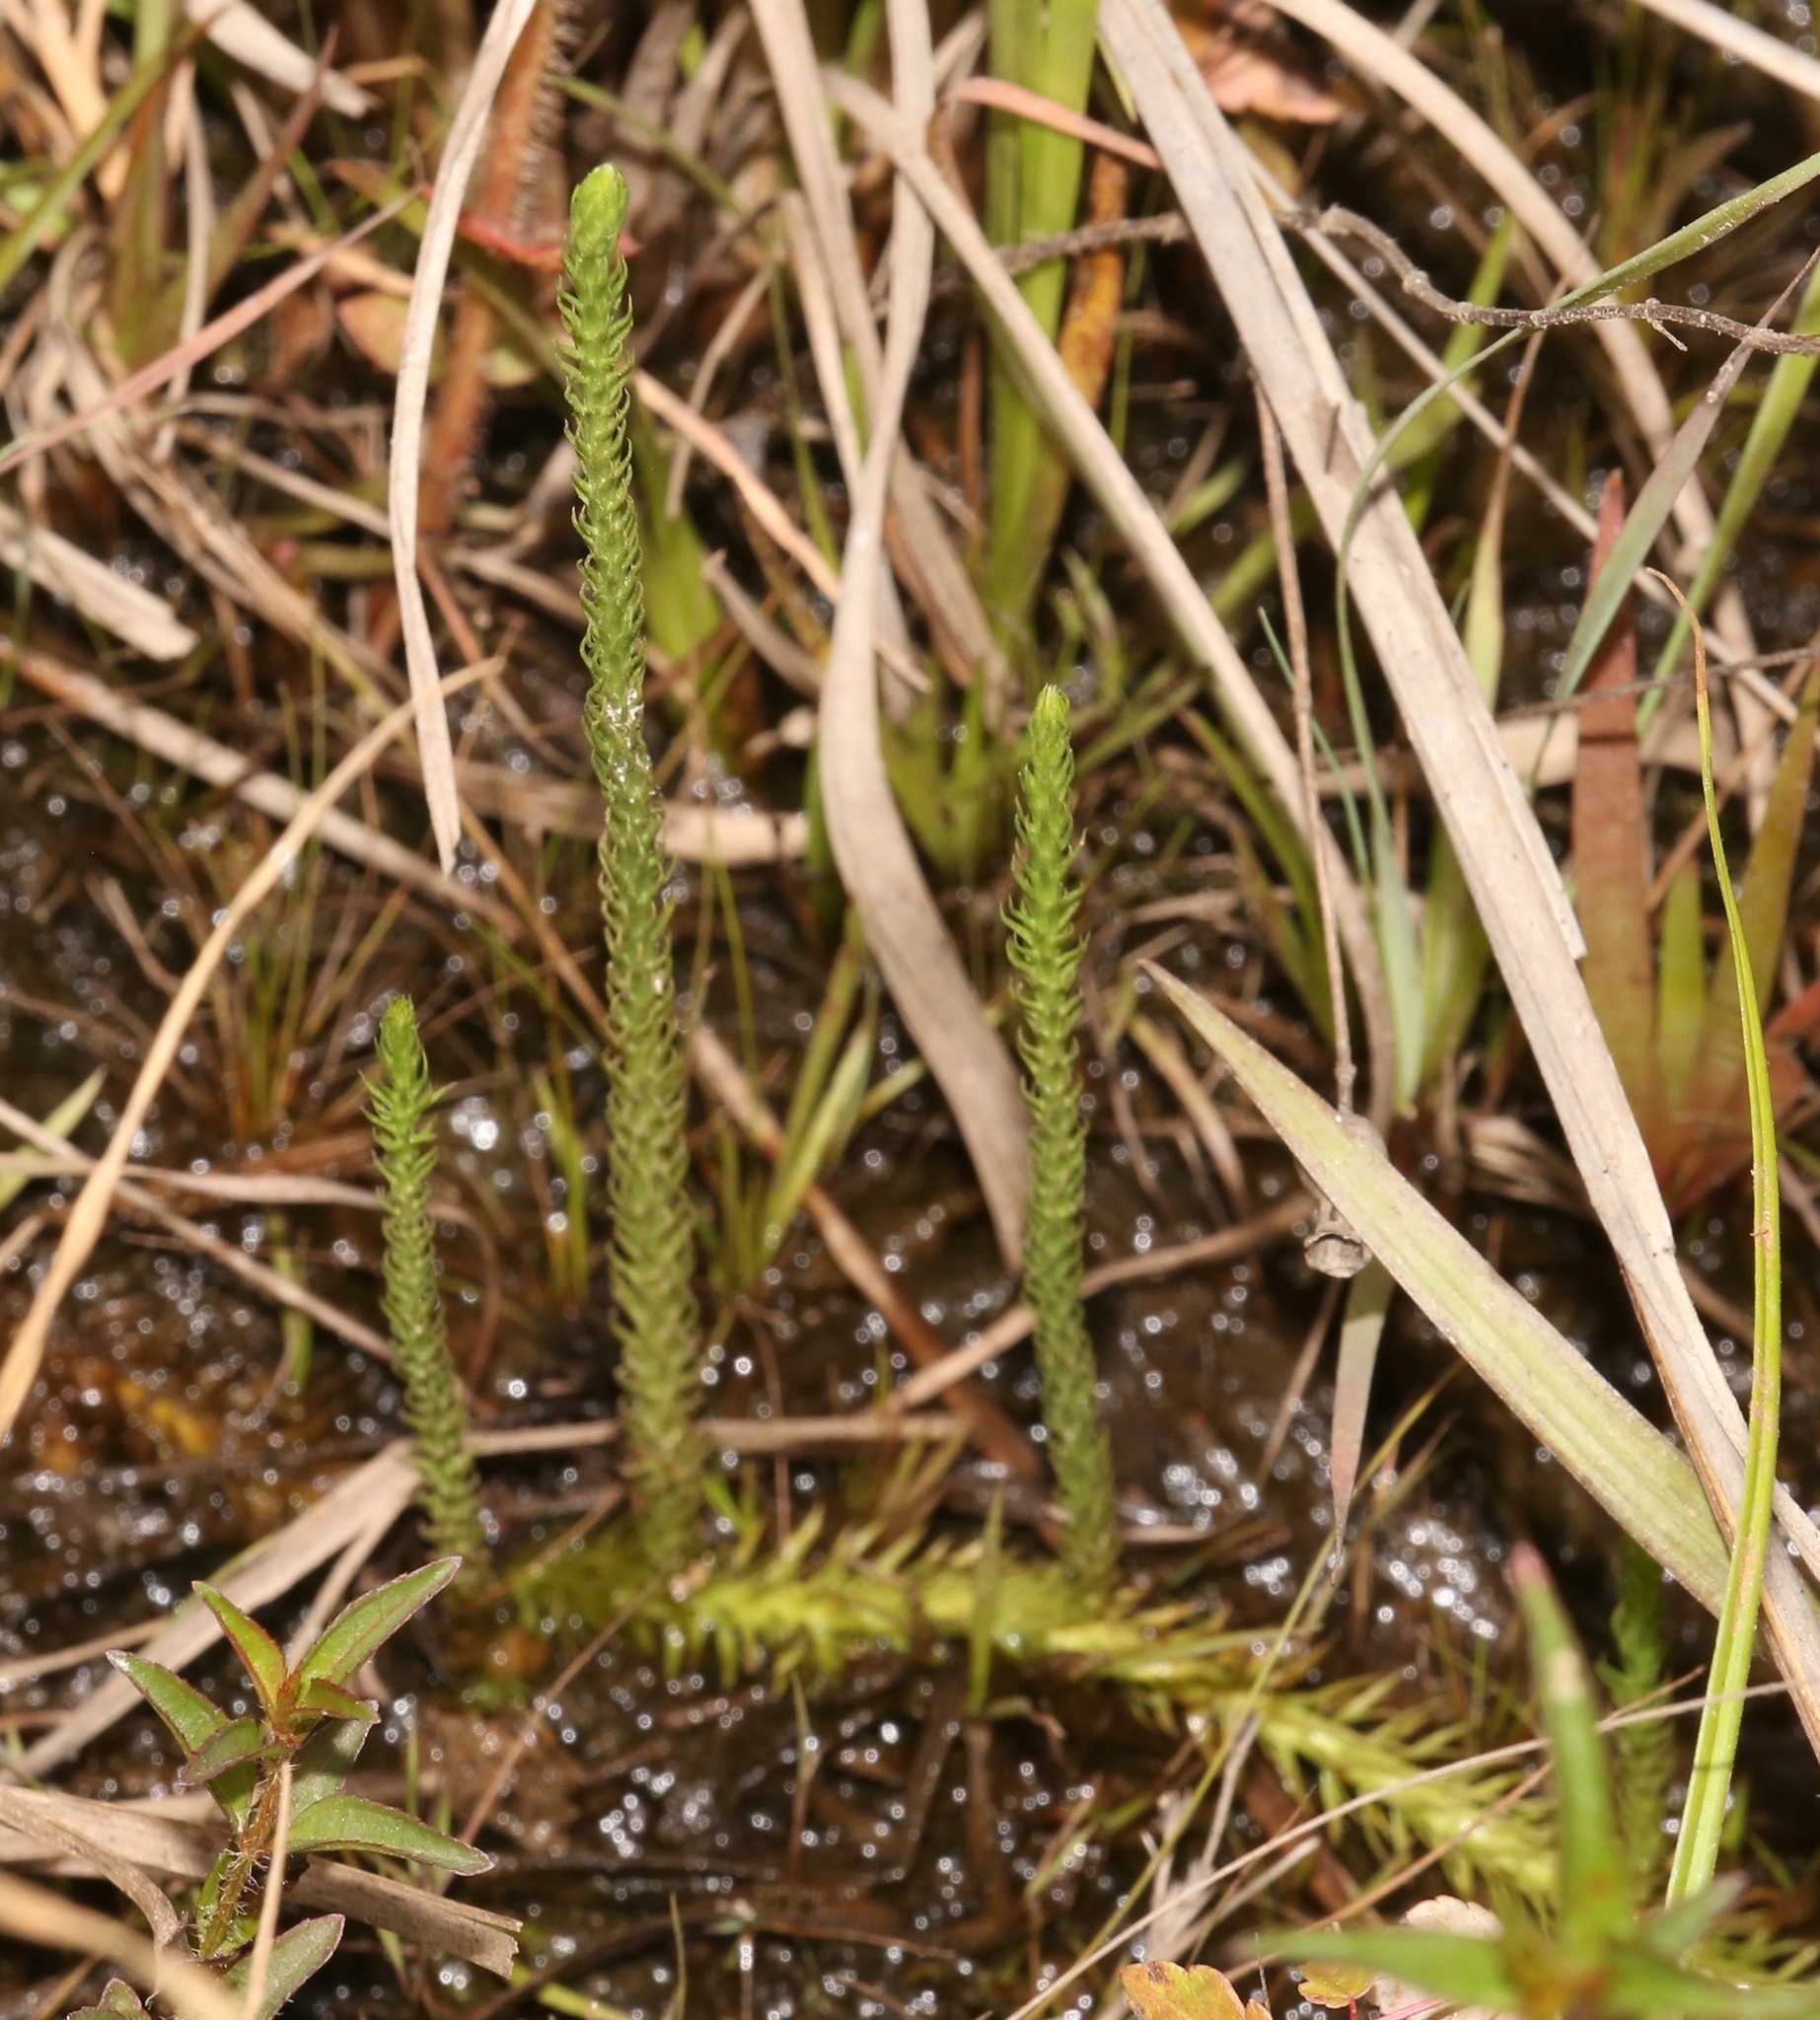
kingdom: Plantae
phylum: Tracheophyta
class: Lycopodiopsida
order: Lycopodiales
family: Lycopodiaceae
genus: Lycopodiella
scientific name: Lycopodiella appressa
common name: Appressed bog clubmoss
